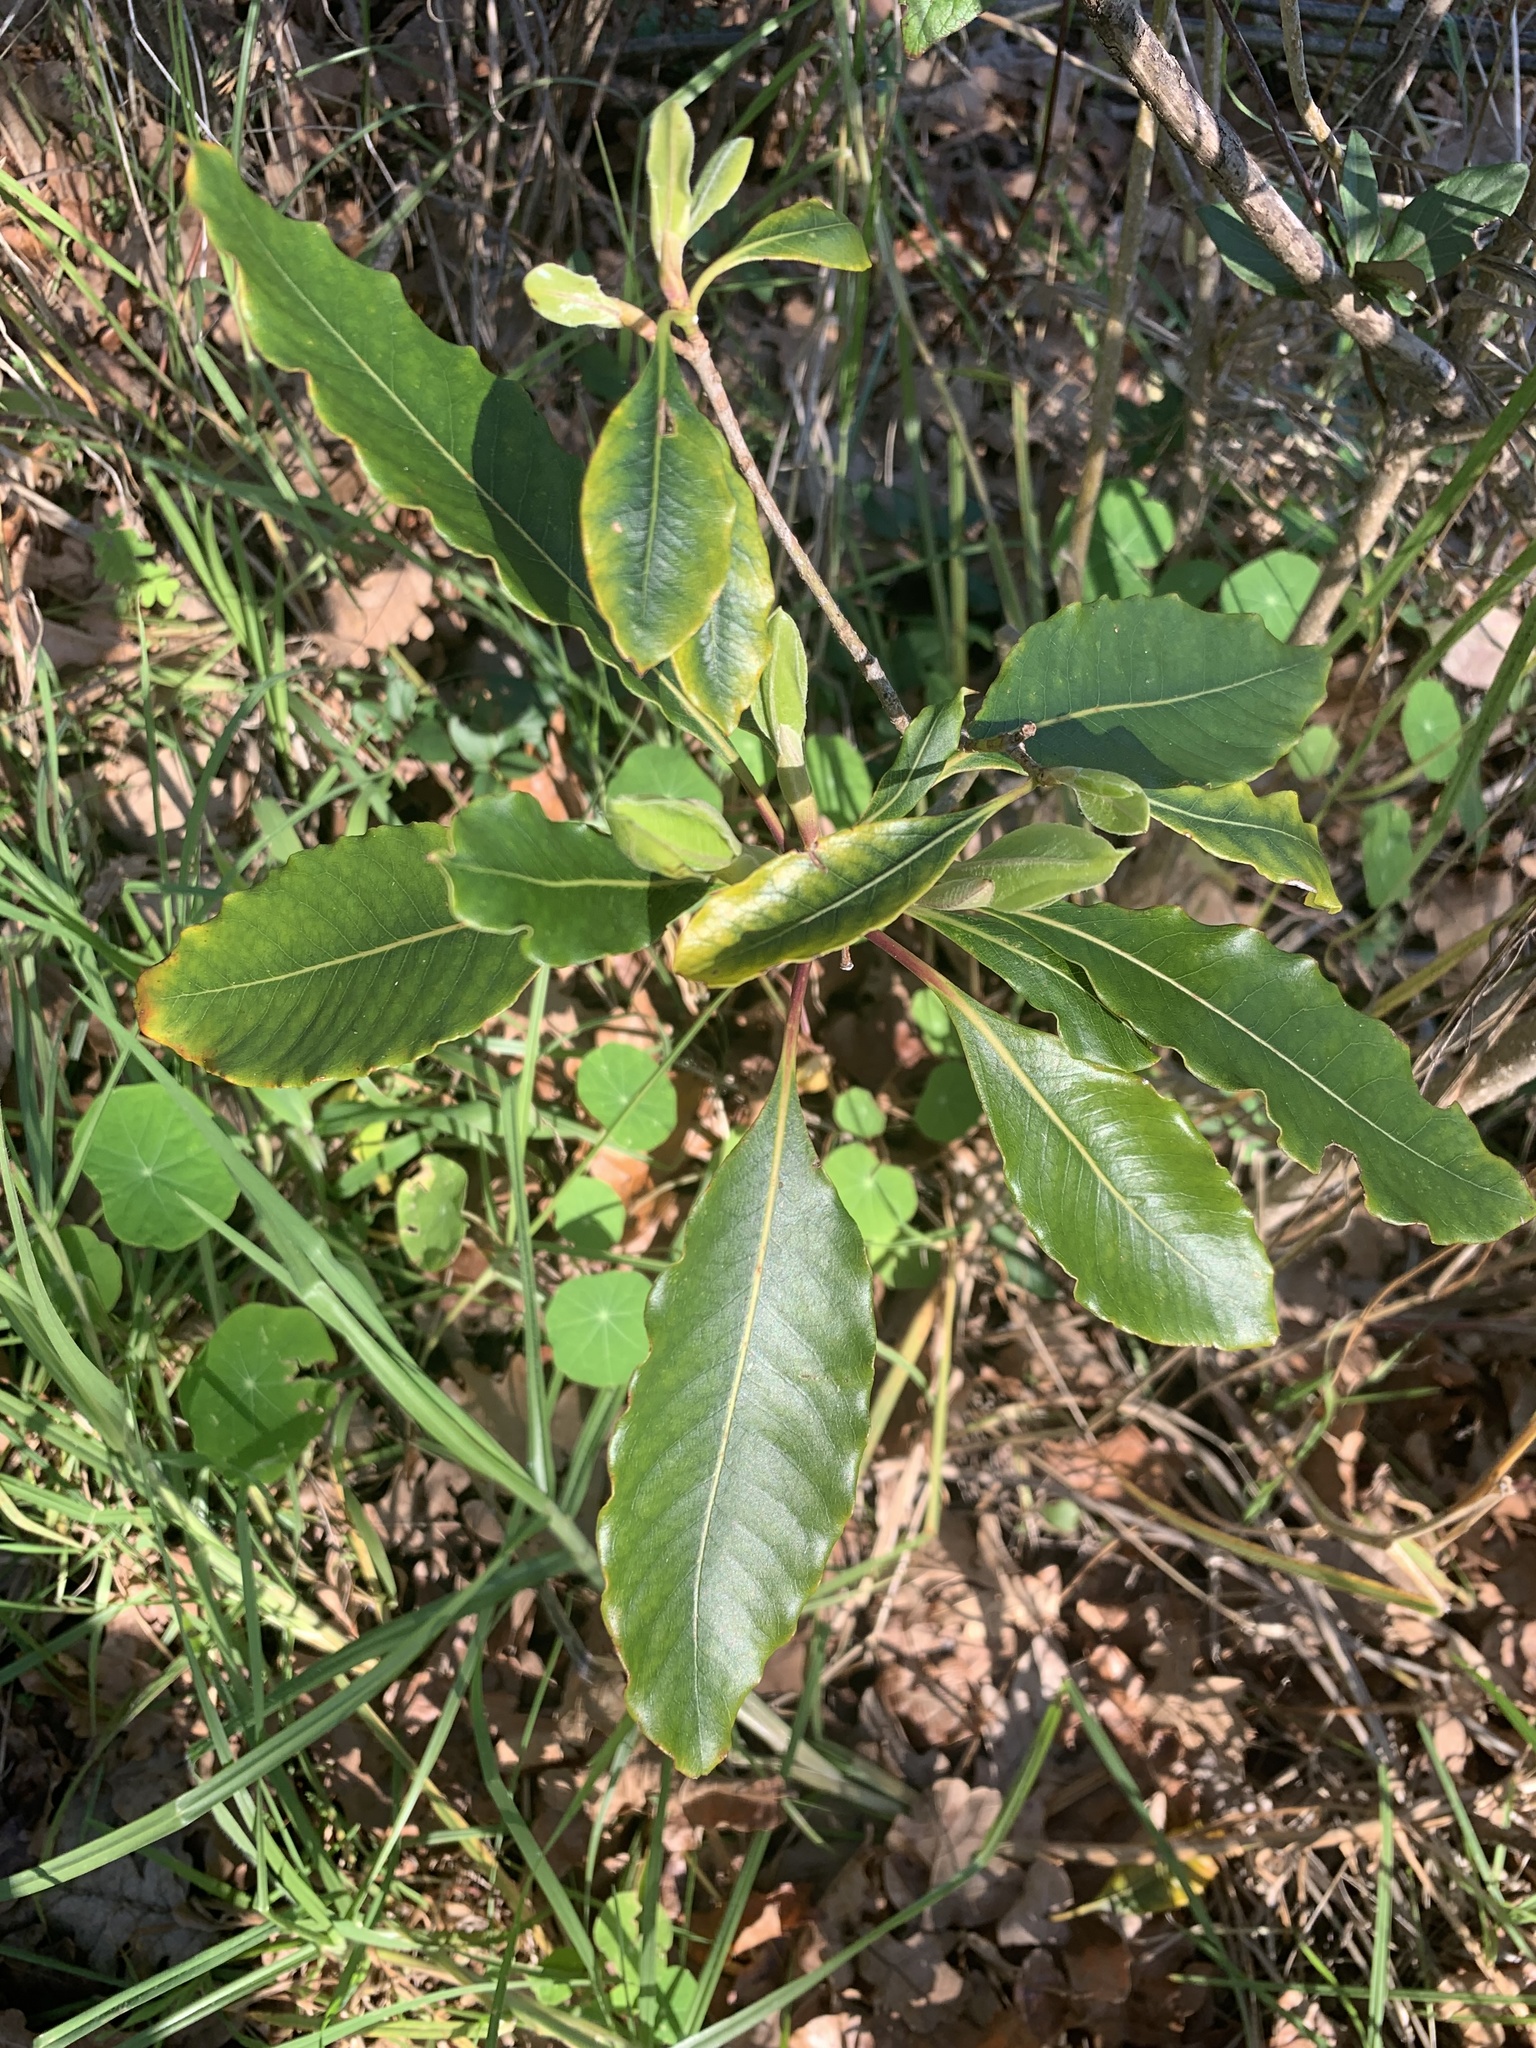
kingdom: Plantae
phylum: Tracheophyta
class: Magnoliopsida
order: Apiales
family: Pittosporaceae
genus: Pittosporum
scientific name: Pittosporum undulatum
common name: Australian cheesewood
